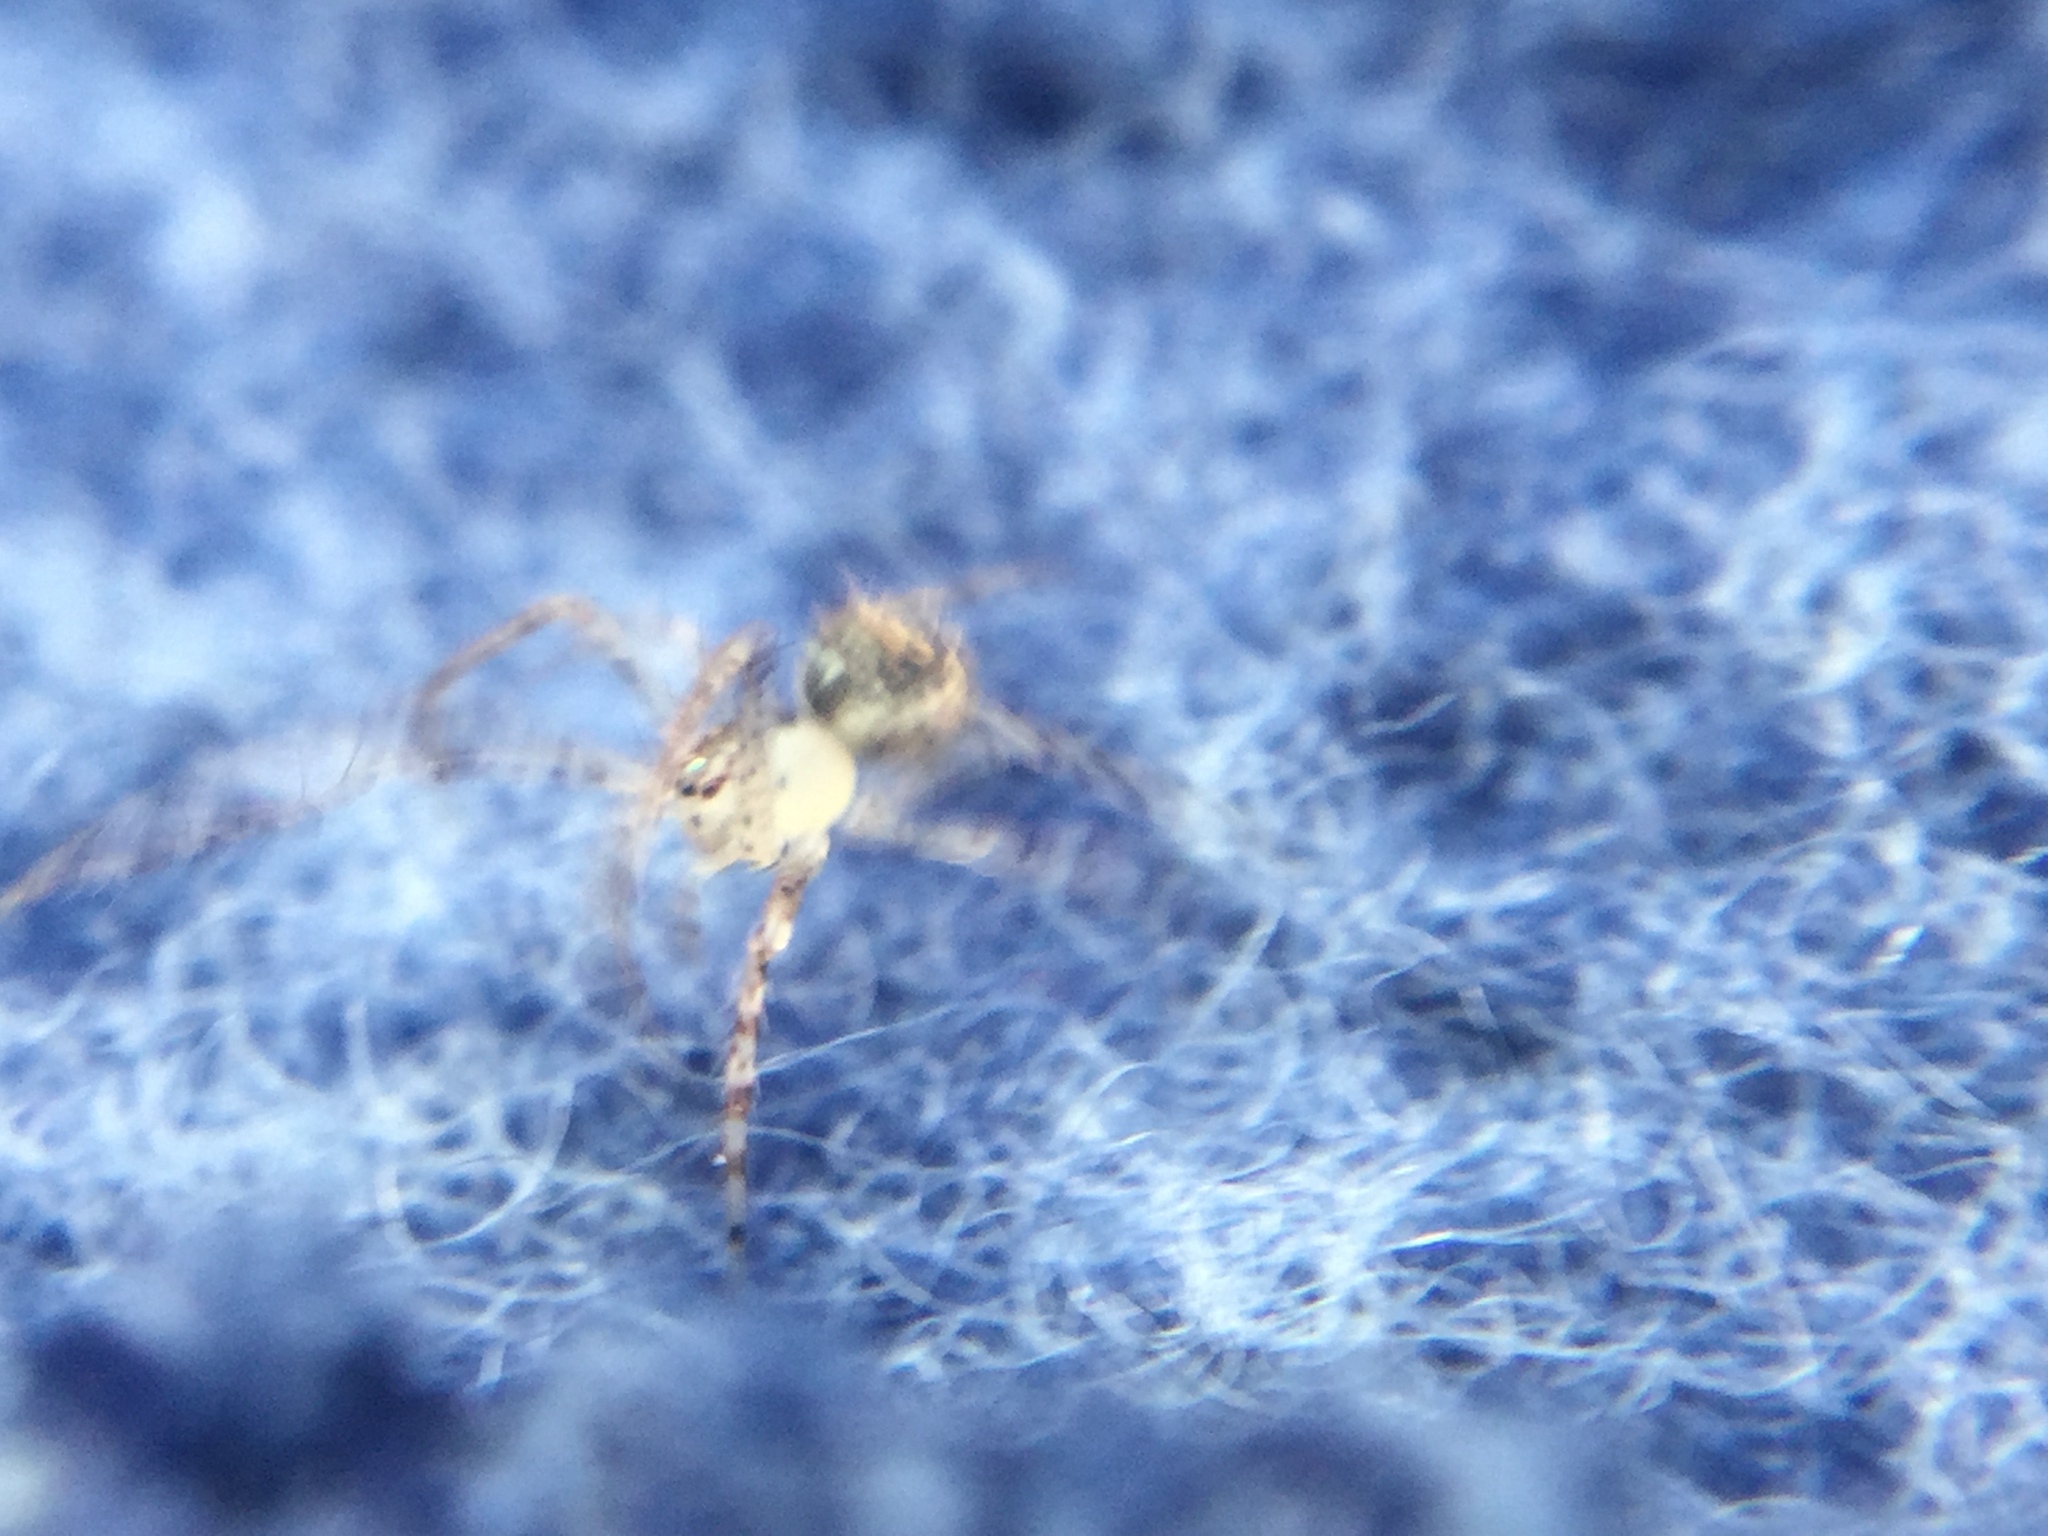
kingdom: Animalia
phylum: Arthropoda
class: Arachnida
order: Araneae
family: Mimetidae
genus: Mimetus
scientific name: Mimetus puritanus
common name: Common pirate spider
